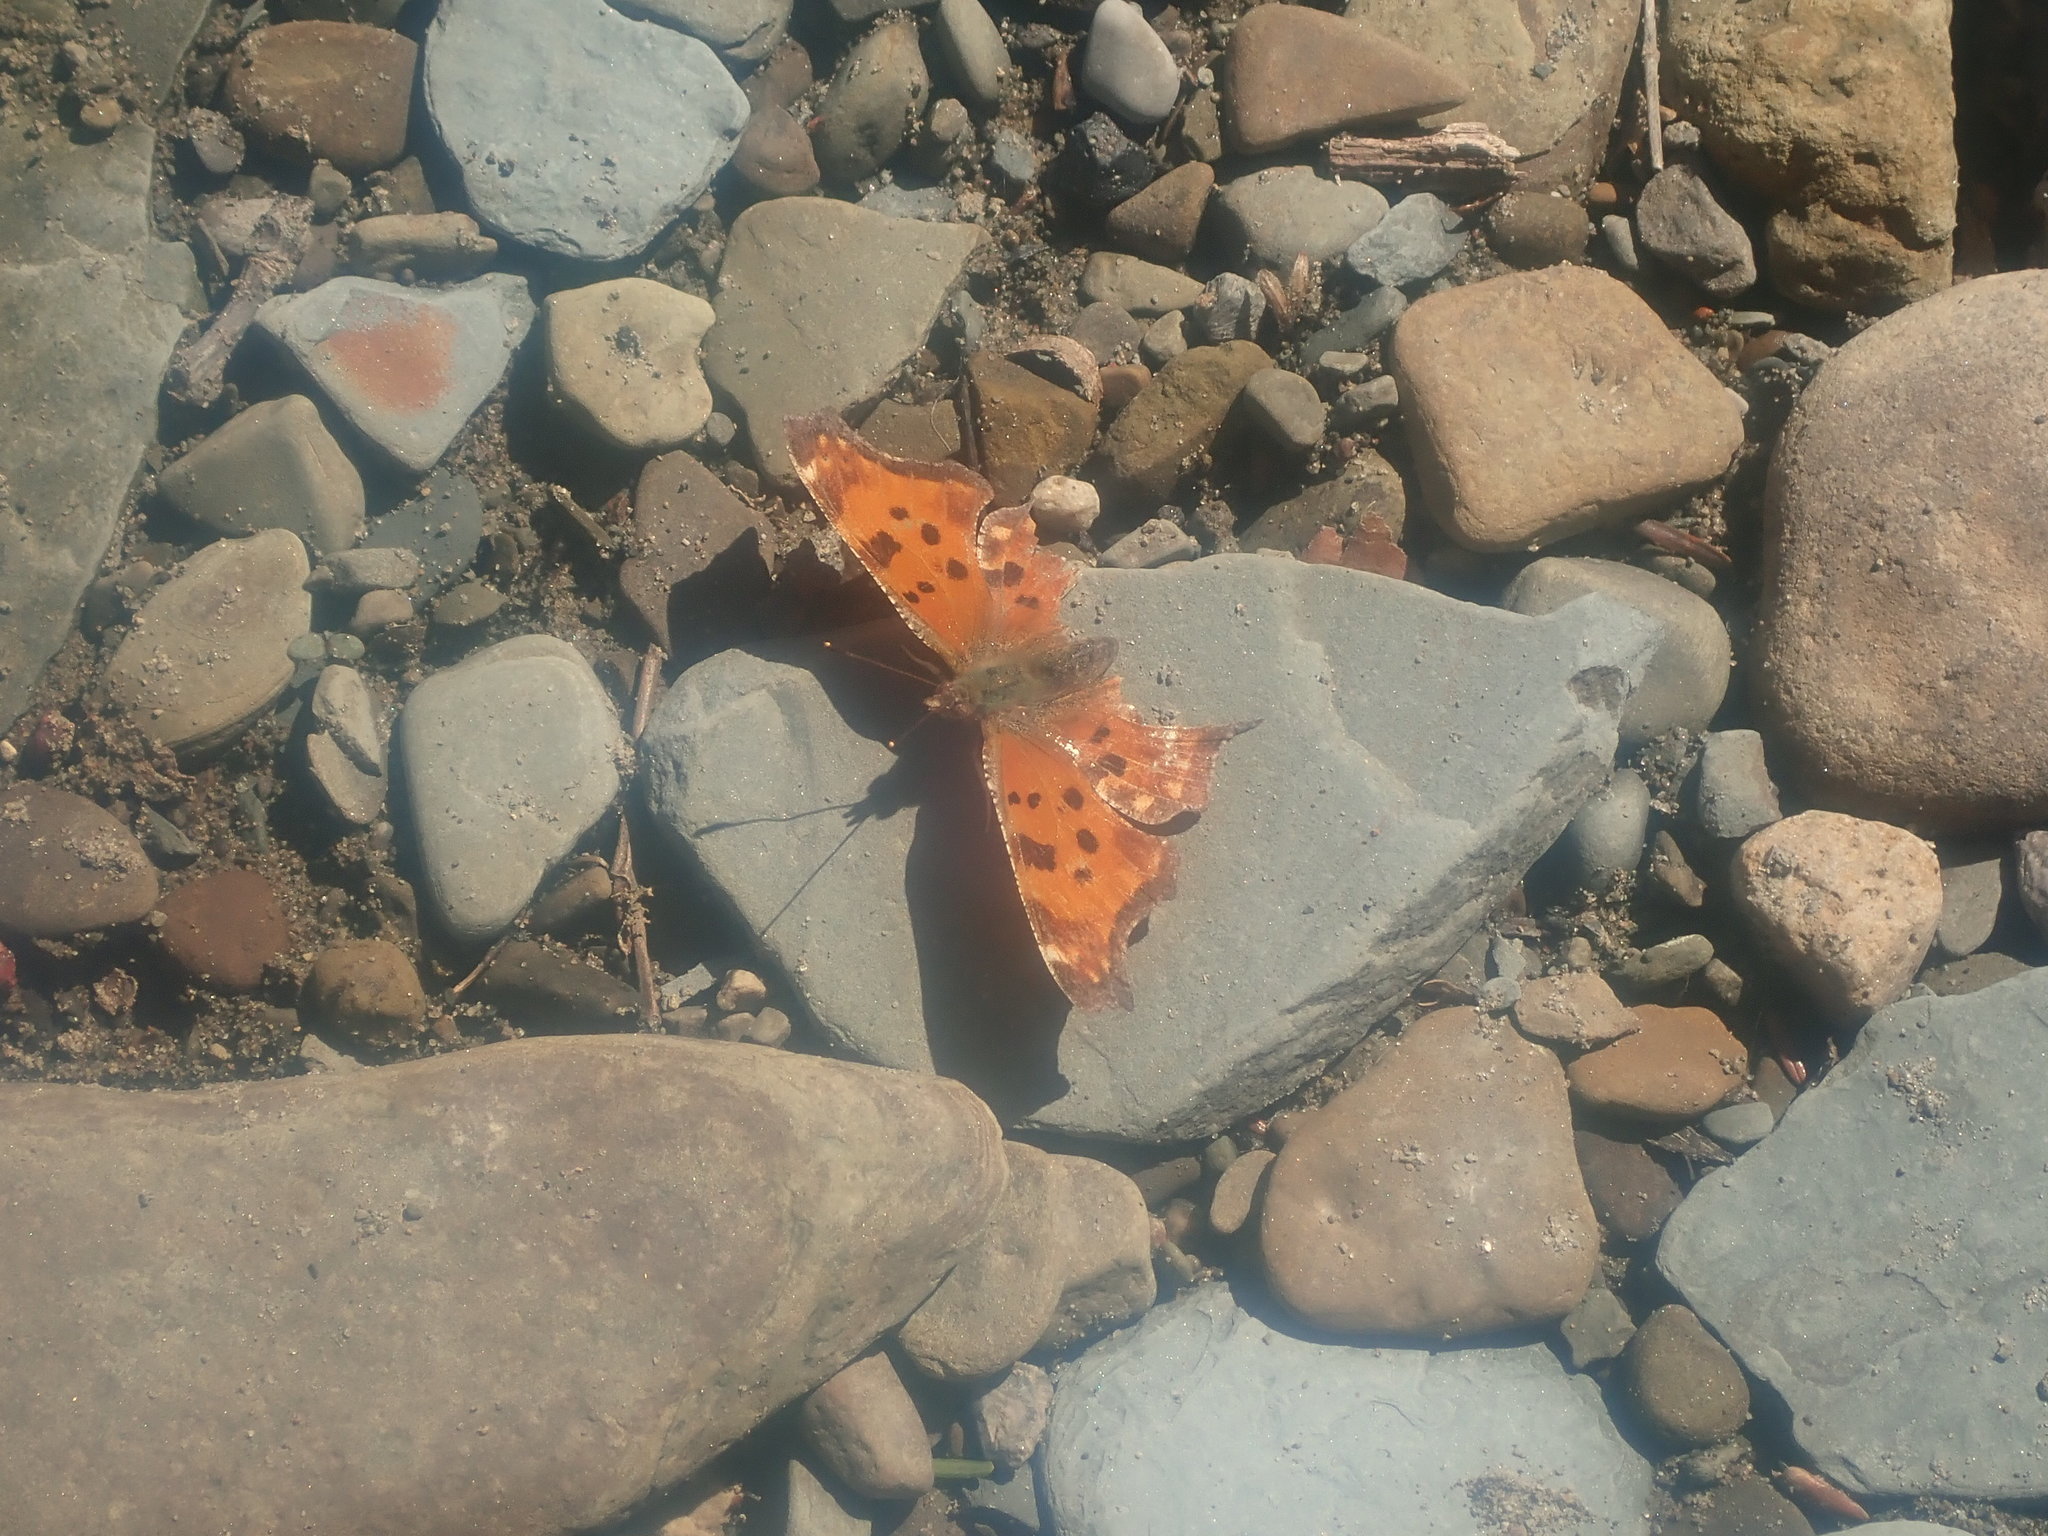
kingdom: Animalia
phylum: Arthropoda
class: Insecta
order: Lepidoptera
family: Nymphalidae
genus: Polygonia
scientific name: Polygonia comma
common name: Eastern comma
